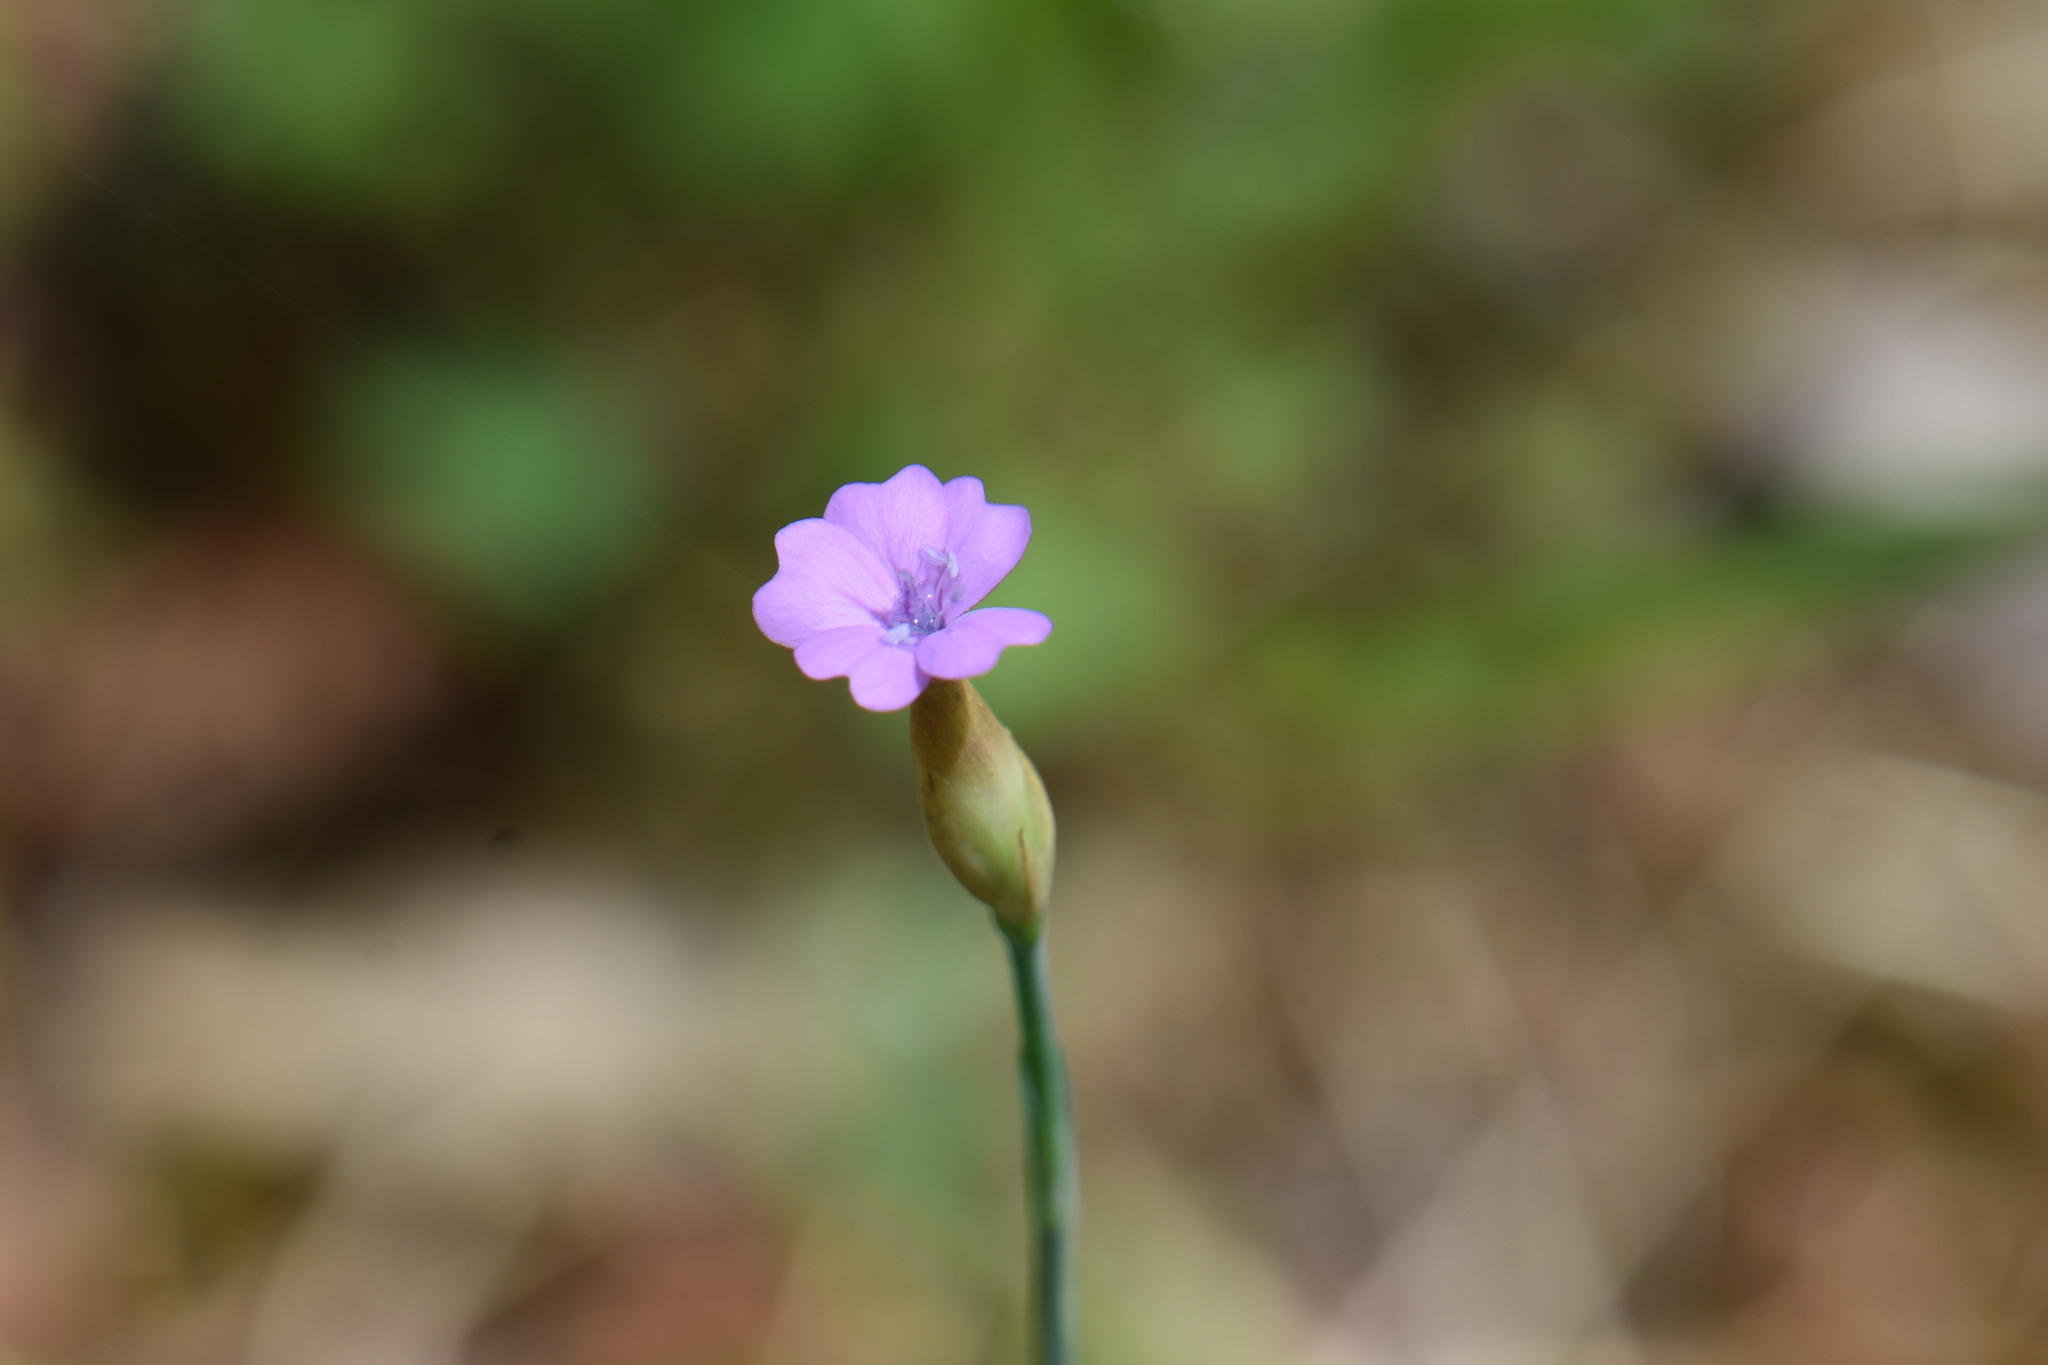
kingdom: Plantae
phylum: Tracheophyta
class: Magnoliopsida
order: Caryophyllales
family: Caryophyllaceae
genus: Petrorhagia
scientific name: Petrorhagia prolifera
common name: Proliferous pink
